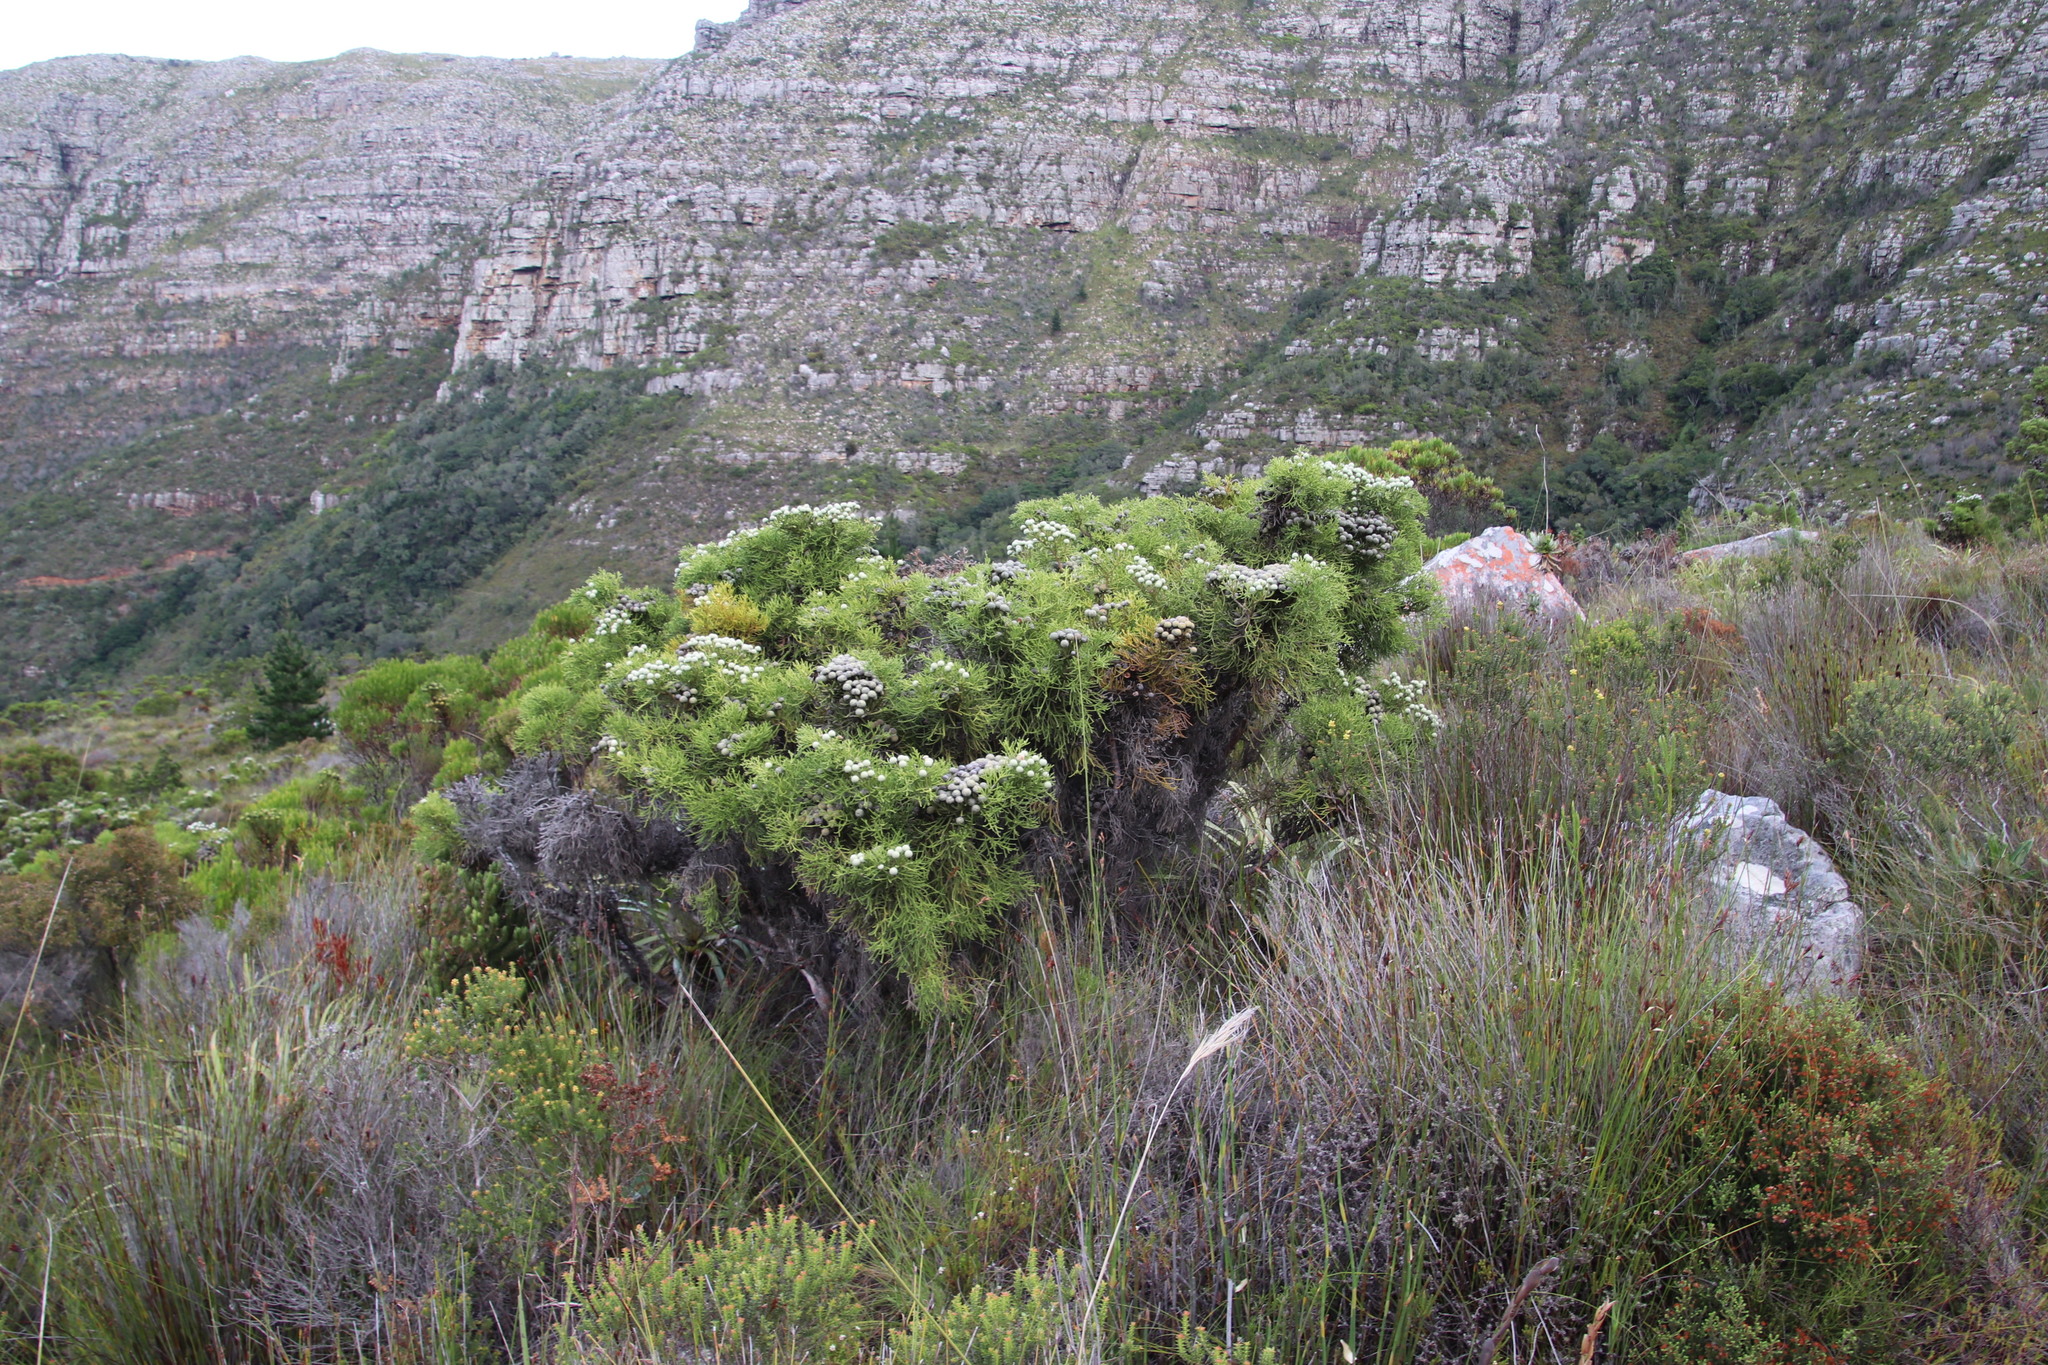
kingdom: Plantae
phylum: Tracheophyta
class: Magnoliopsida
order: Bruniales
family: Bruniaceae
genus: Brunia
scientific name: Brunia noduliflora
